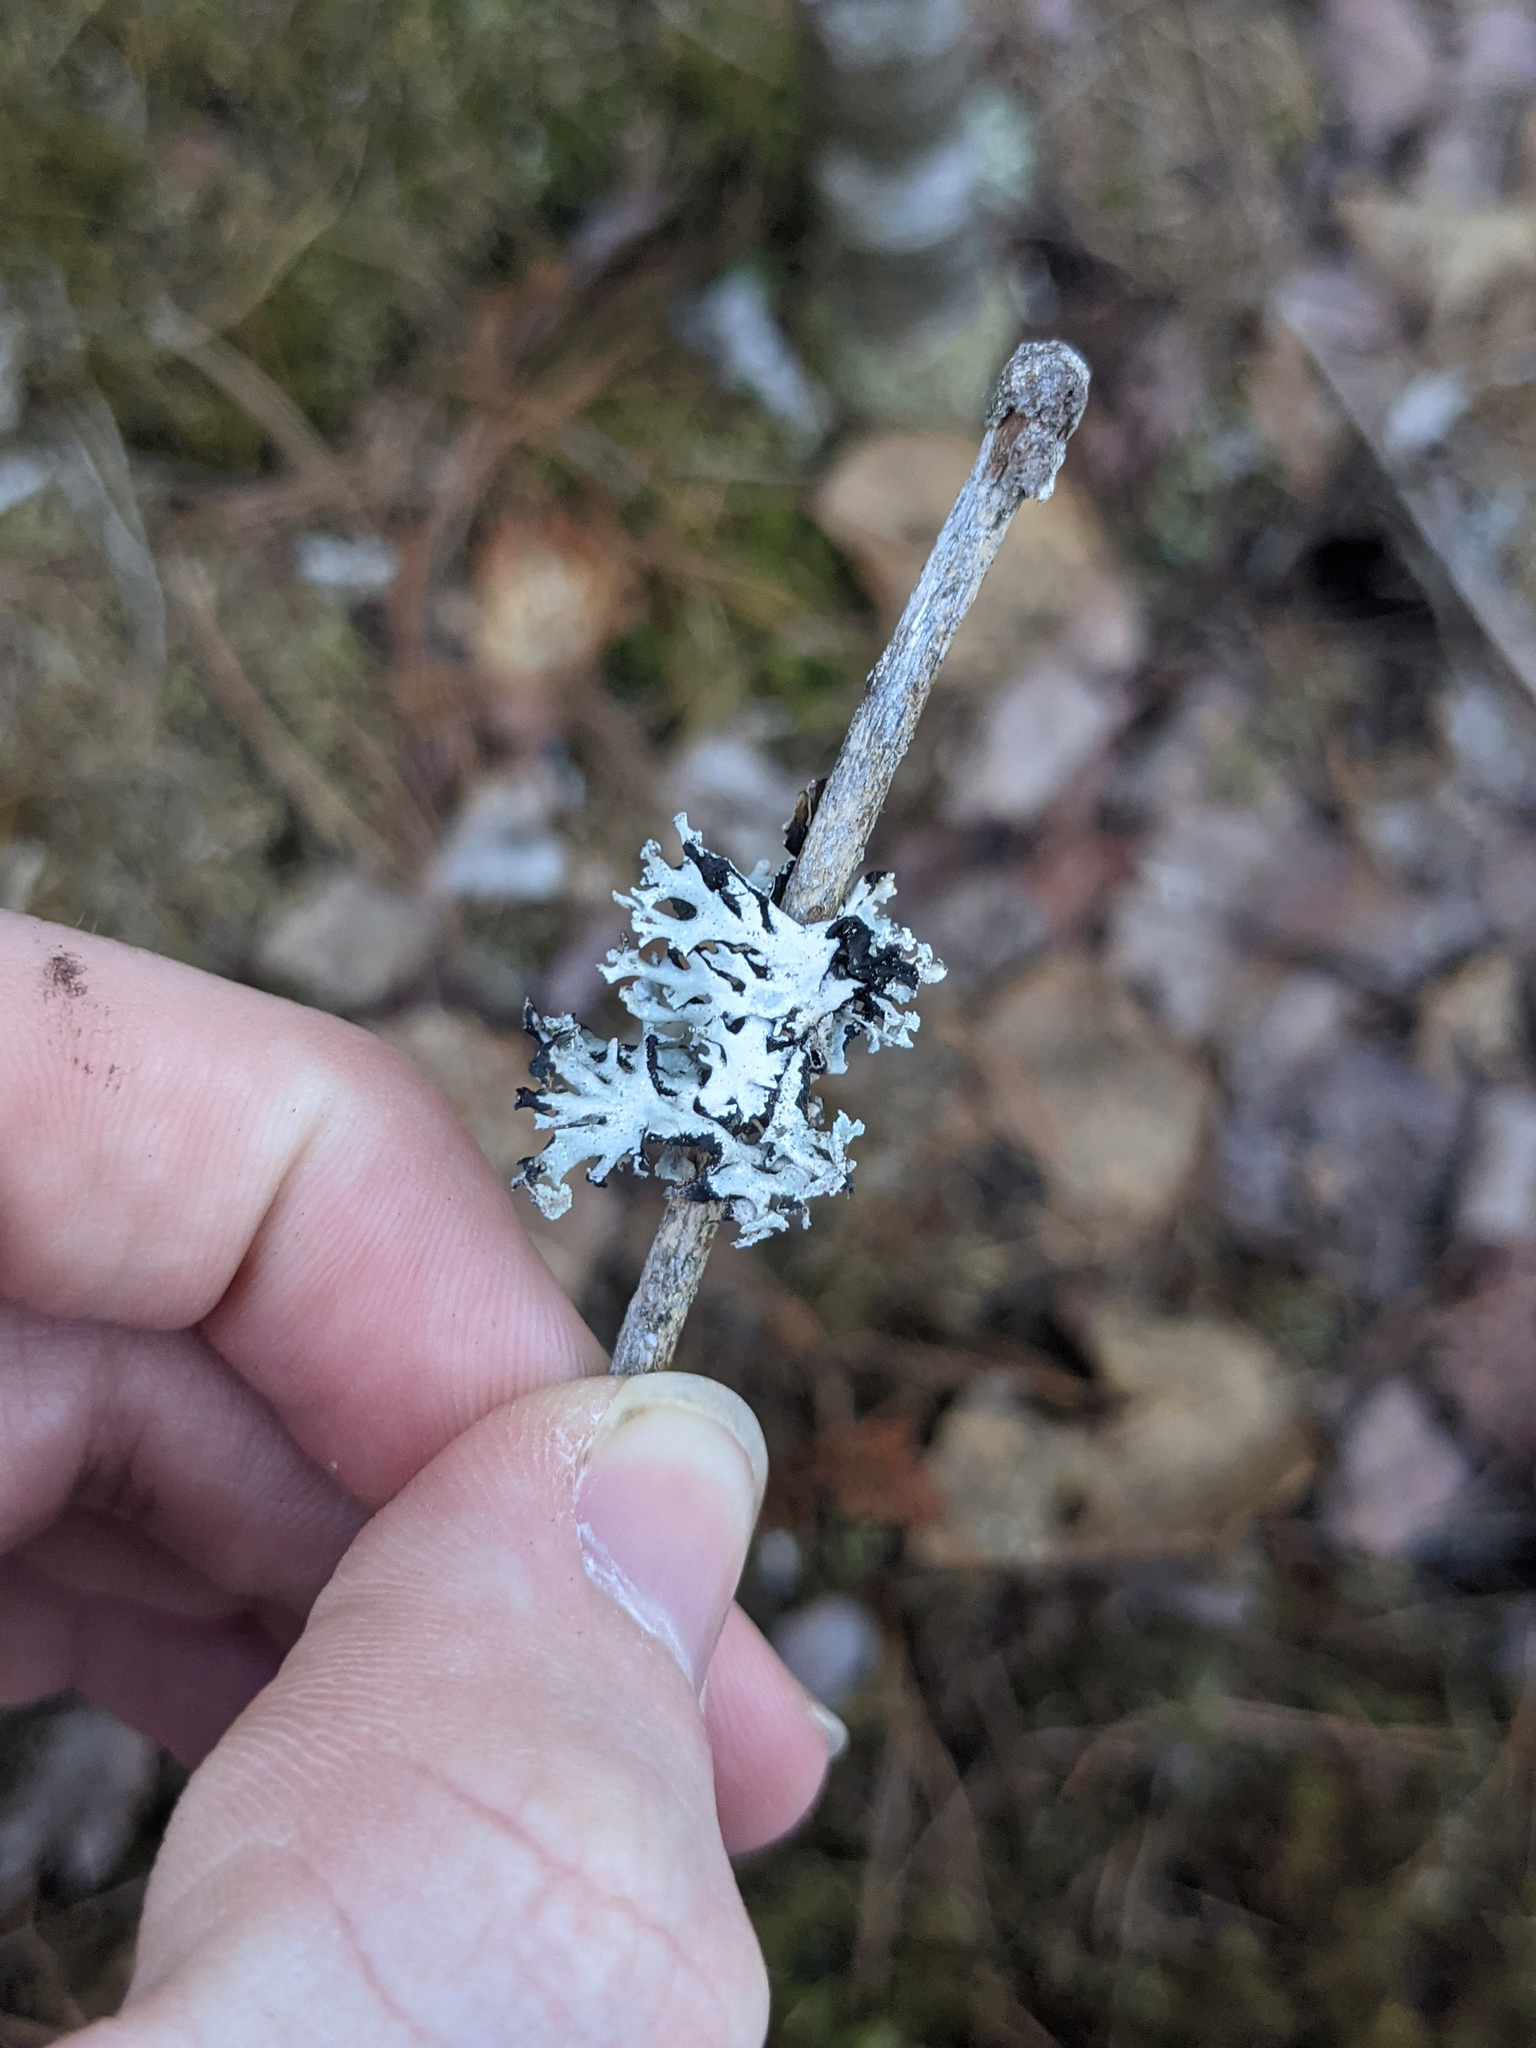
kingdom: Fungi
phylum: Ascomycota
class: Lecanoromycetes
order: Lecanorales
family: Parmeliaceae
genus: Hypogymnia
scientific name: Hypogymnia physodes
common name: Dark crottle
